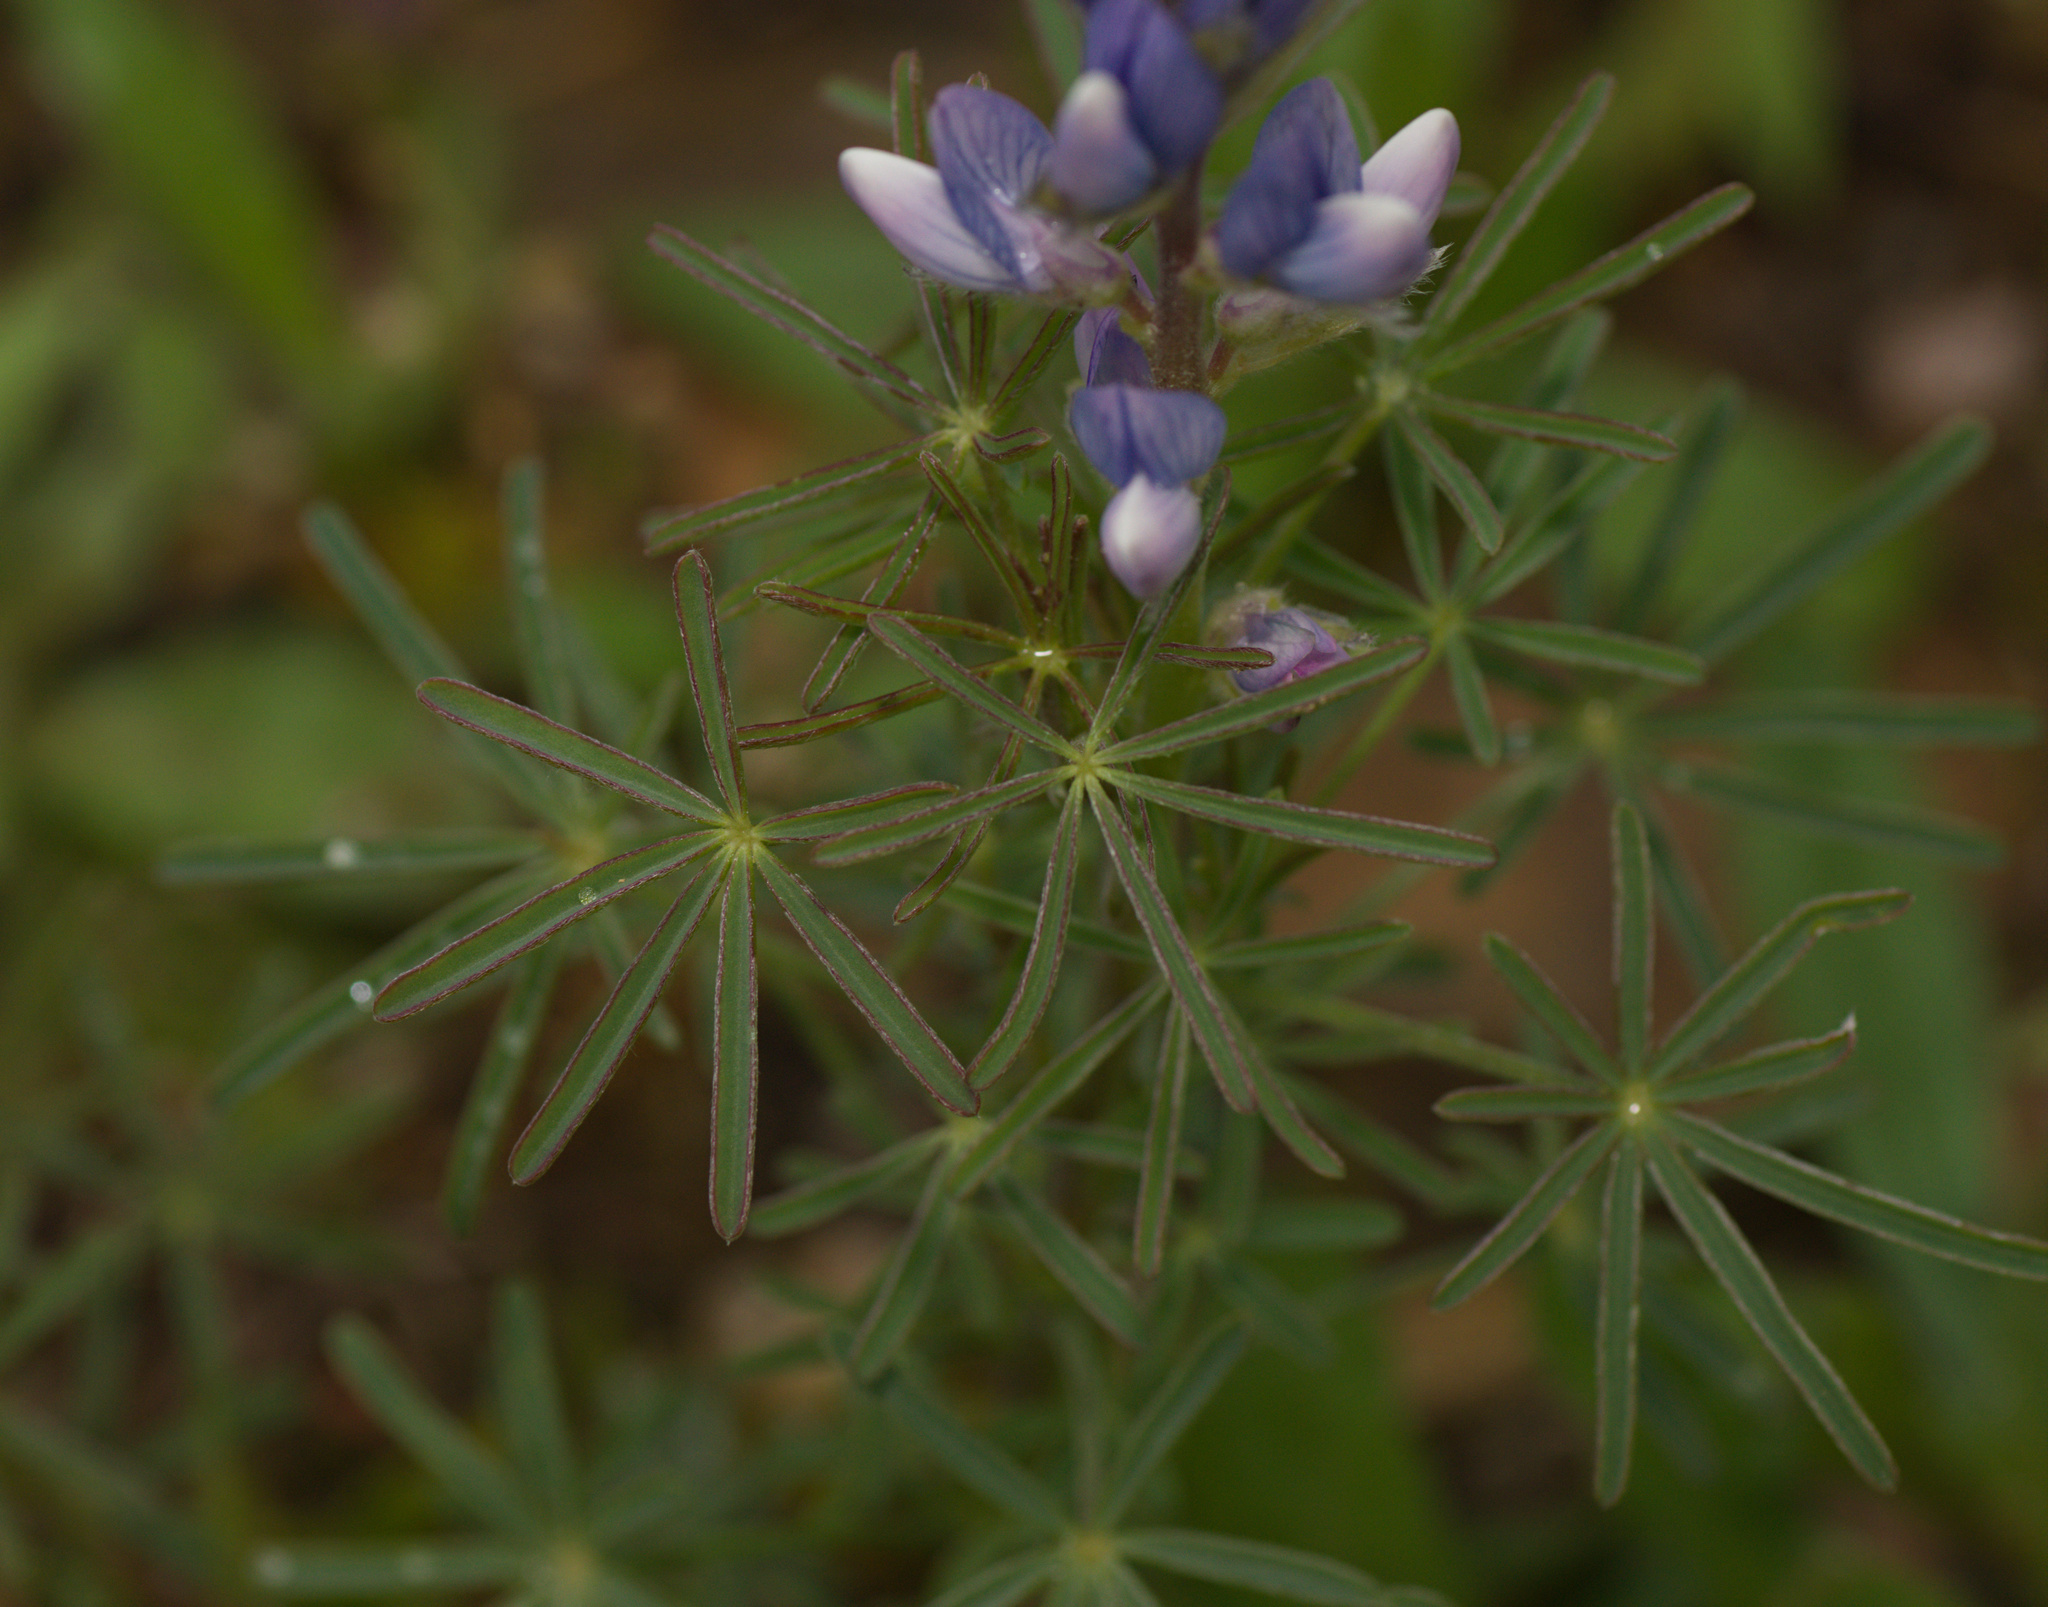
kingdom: Plantae
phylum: Tracheophyta
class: Magnoliopsida
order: Fabales
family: Fabaceae
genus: Lupinus
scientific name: Lupinus angustifolius
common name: Narrow-leaved lupin
